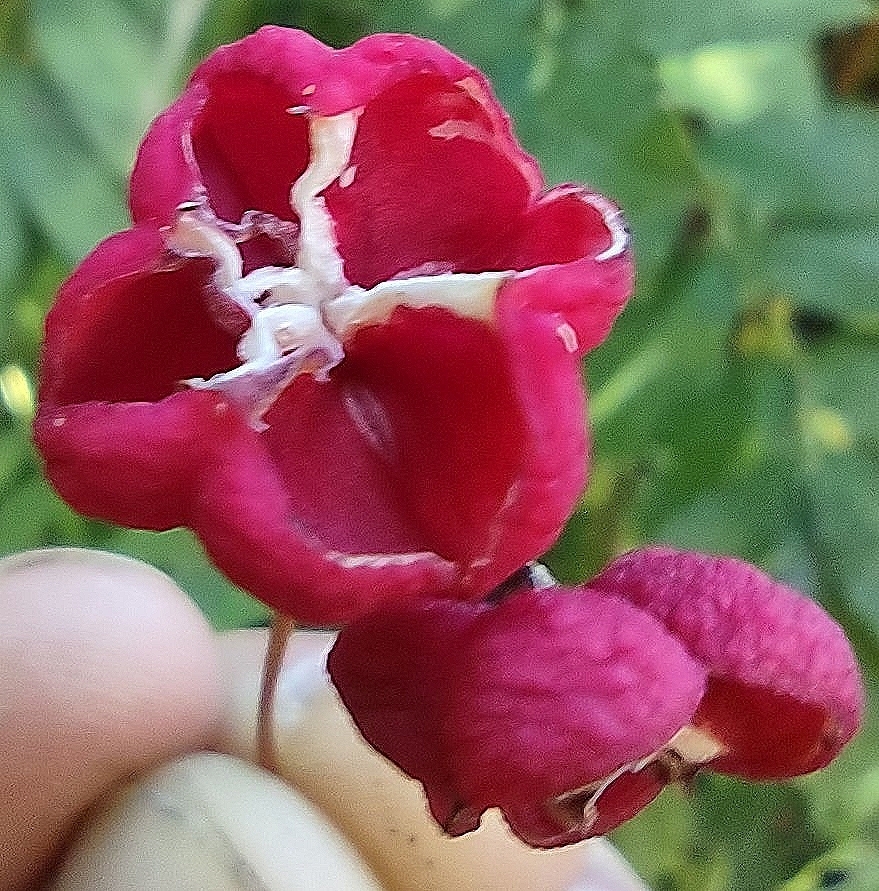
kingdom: Plantae
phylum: Tracheophyta
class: Magnoliopsida
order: Celastrales
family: Celastraceae
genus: Euonymus
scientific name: Euonymus europaeus
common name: Spindle
